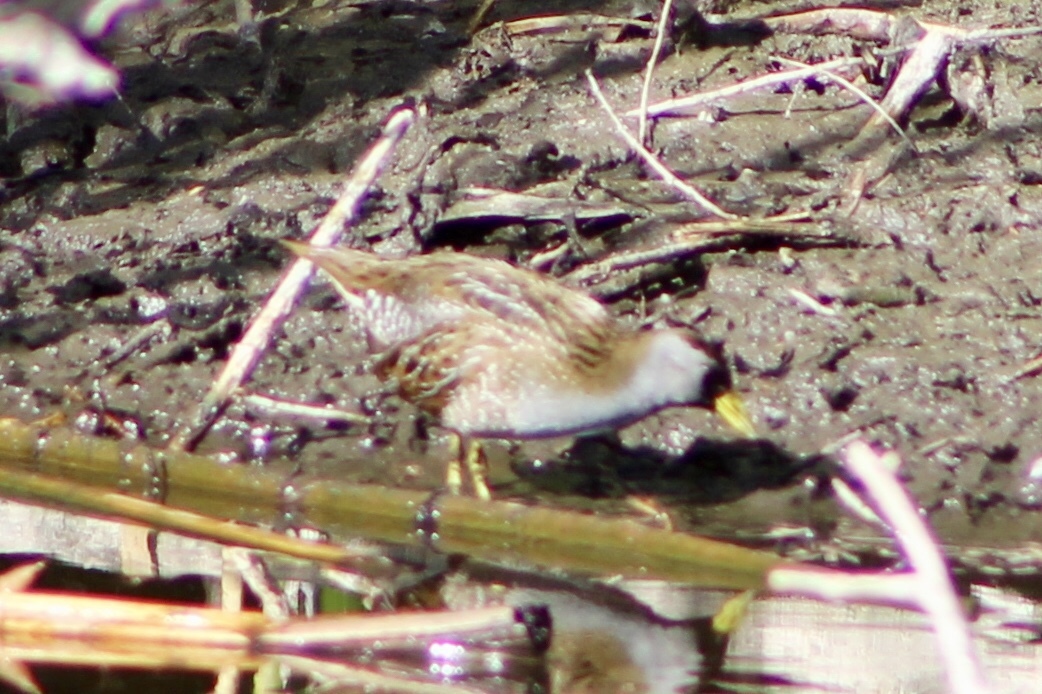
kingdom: Animalia
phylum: Chordata
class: Aves
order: Gruiformes
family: Rallidae
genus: Porzana
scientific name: Porzana carolina
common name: Sora
